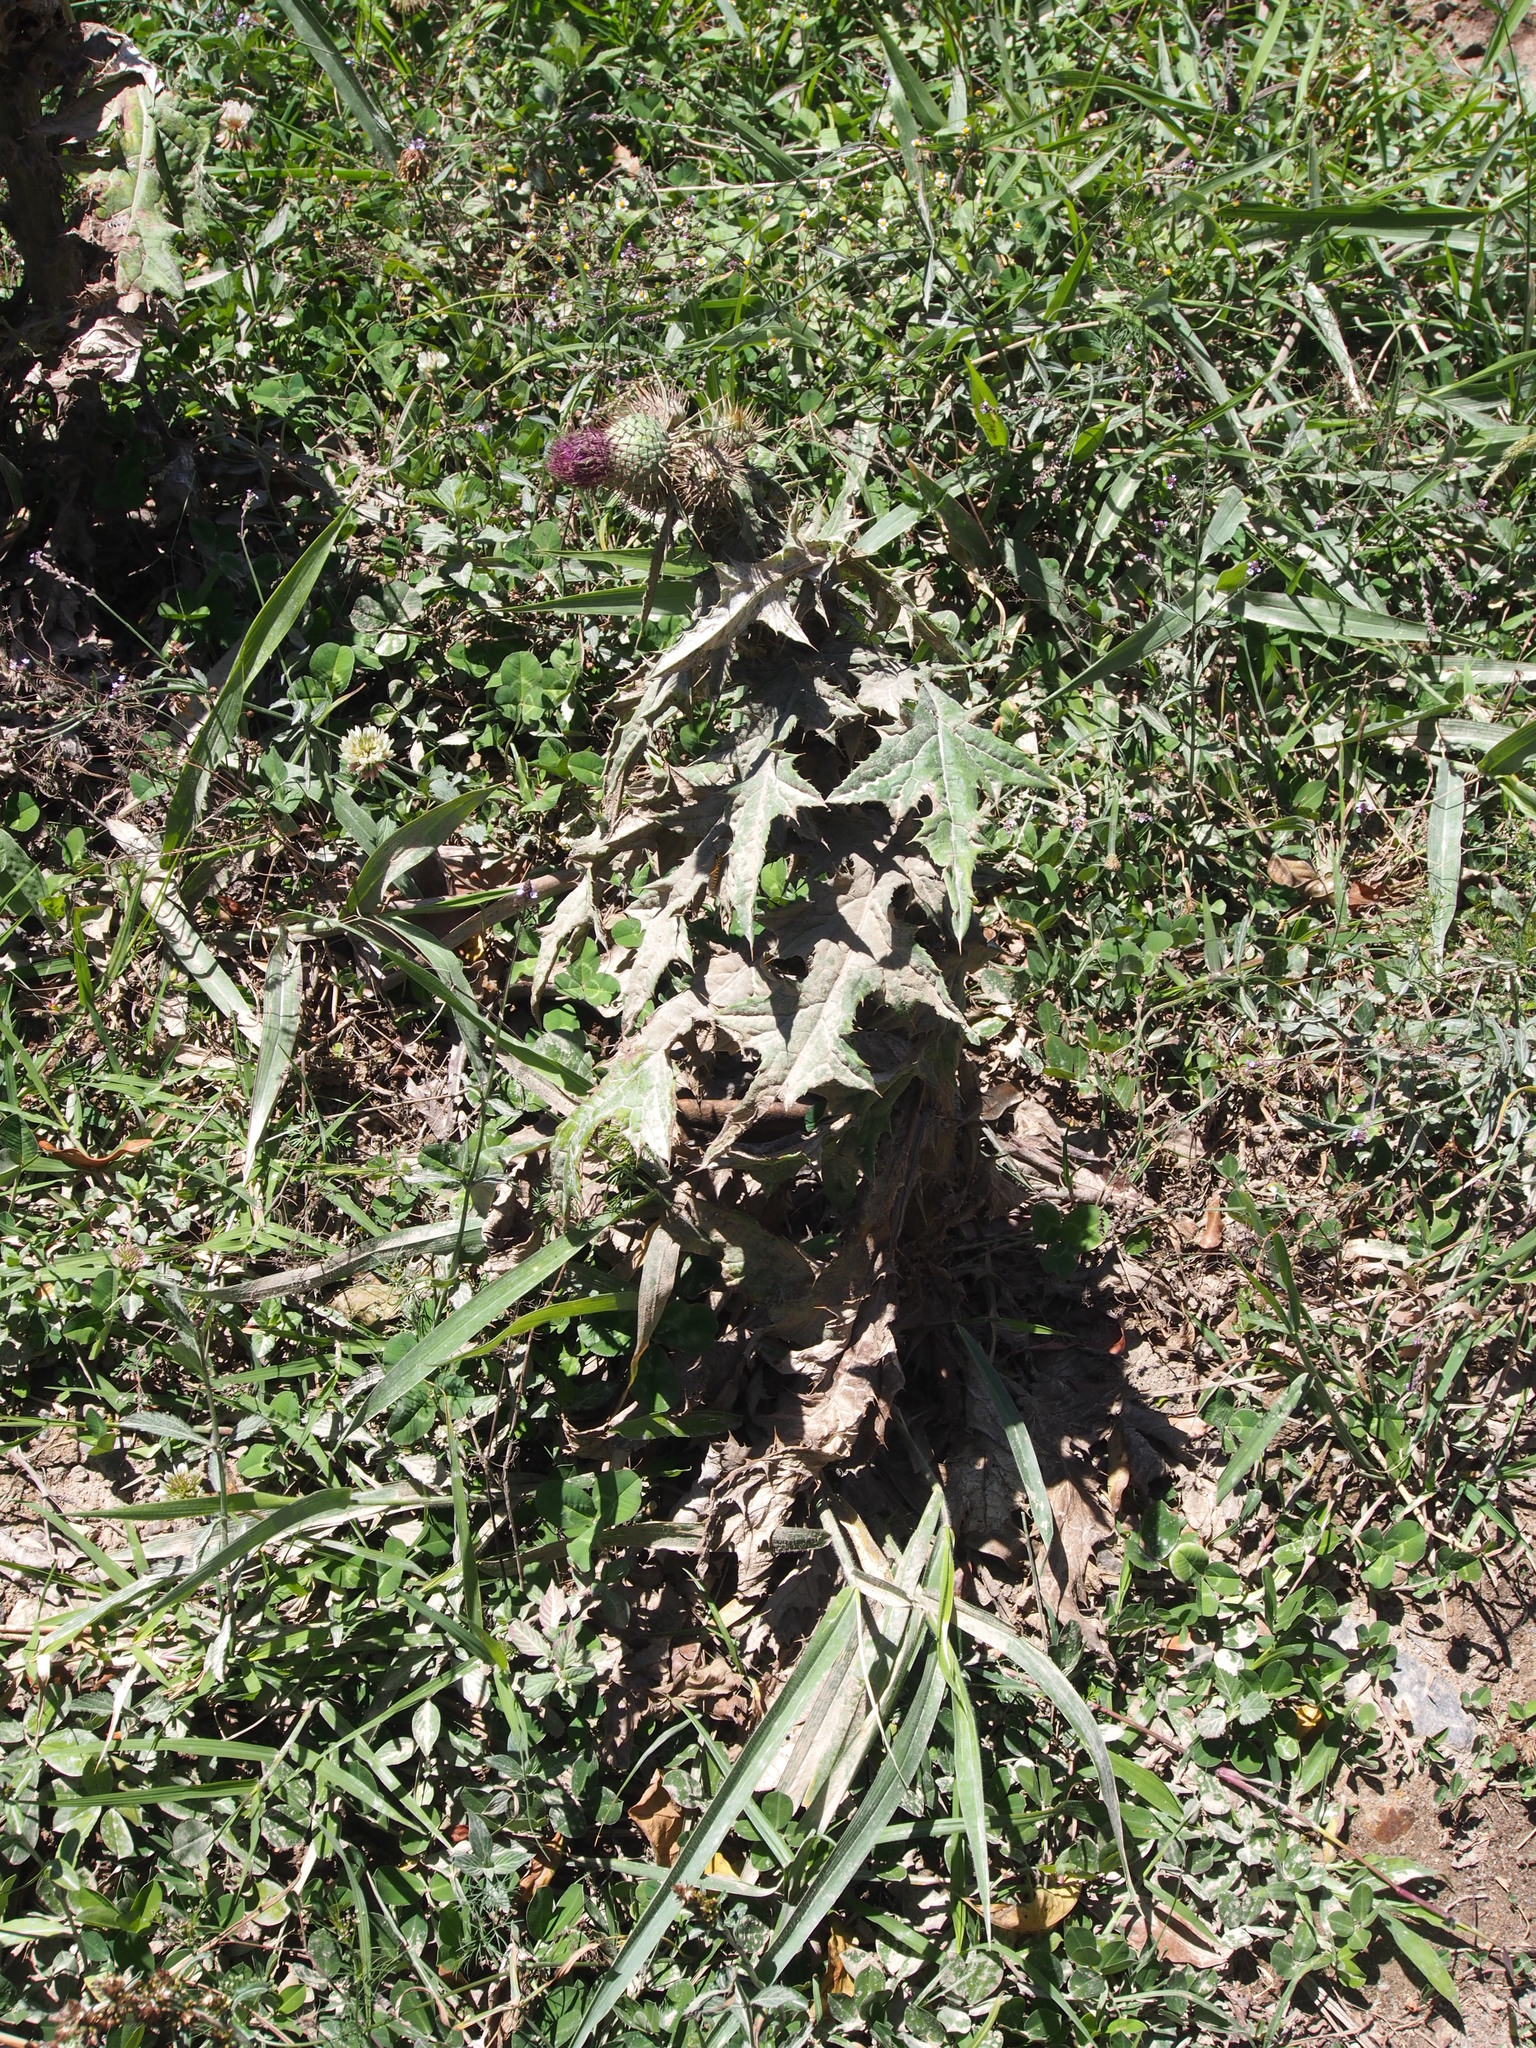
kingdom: Plantae
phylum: Tracheophyta
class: Magnoliopsida
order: Asterales
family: Asteraceae
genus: Cirsium
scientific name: Cirsium mexicanum
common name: Mexican thistle
